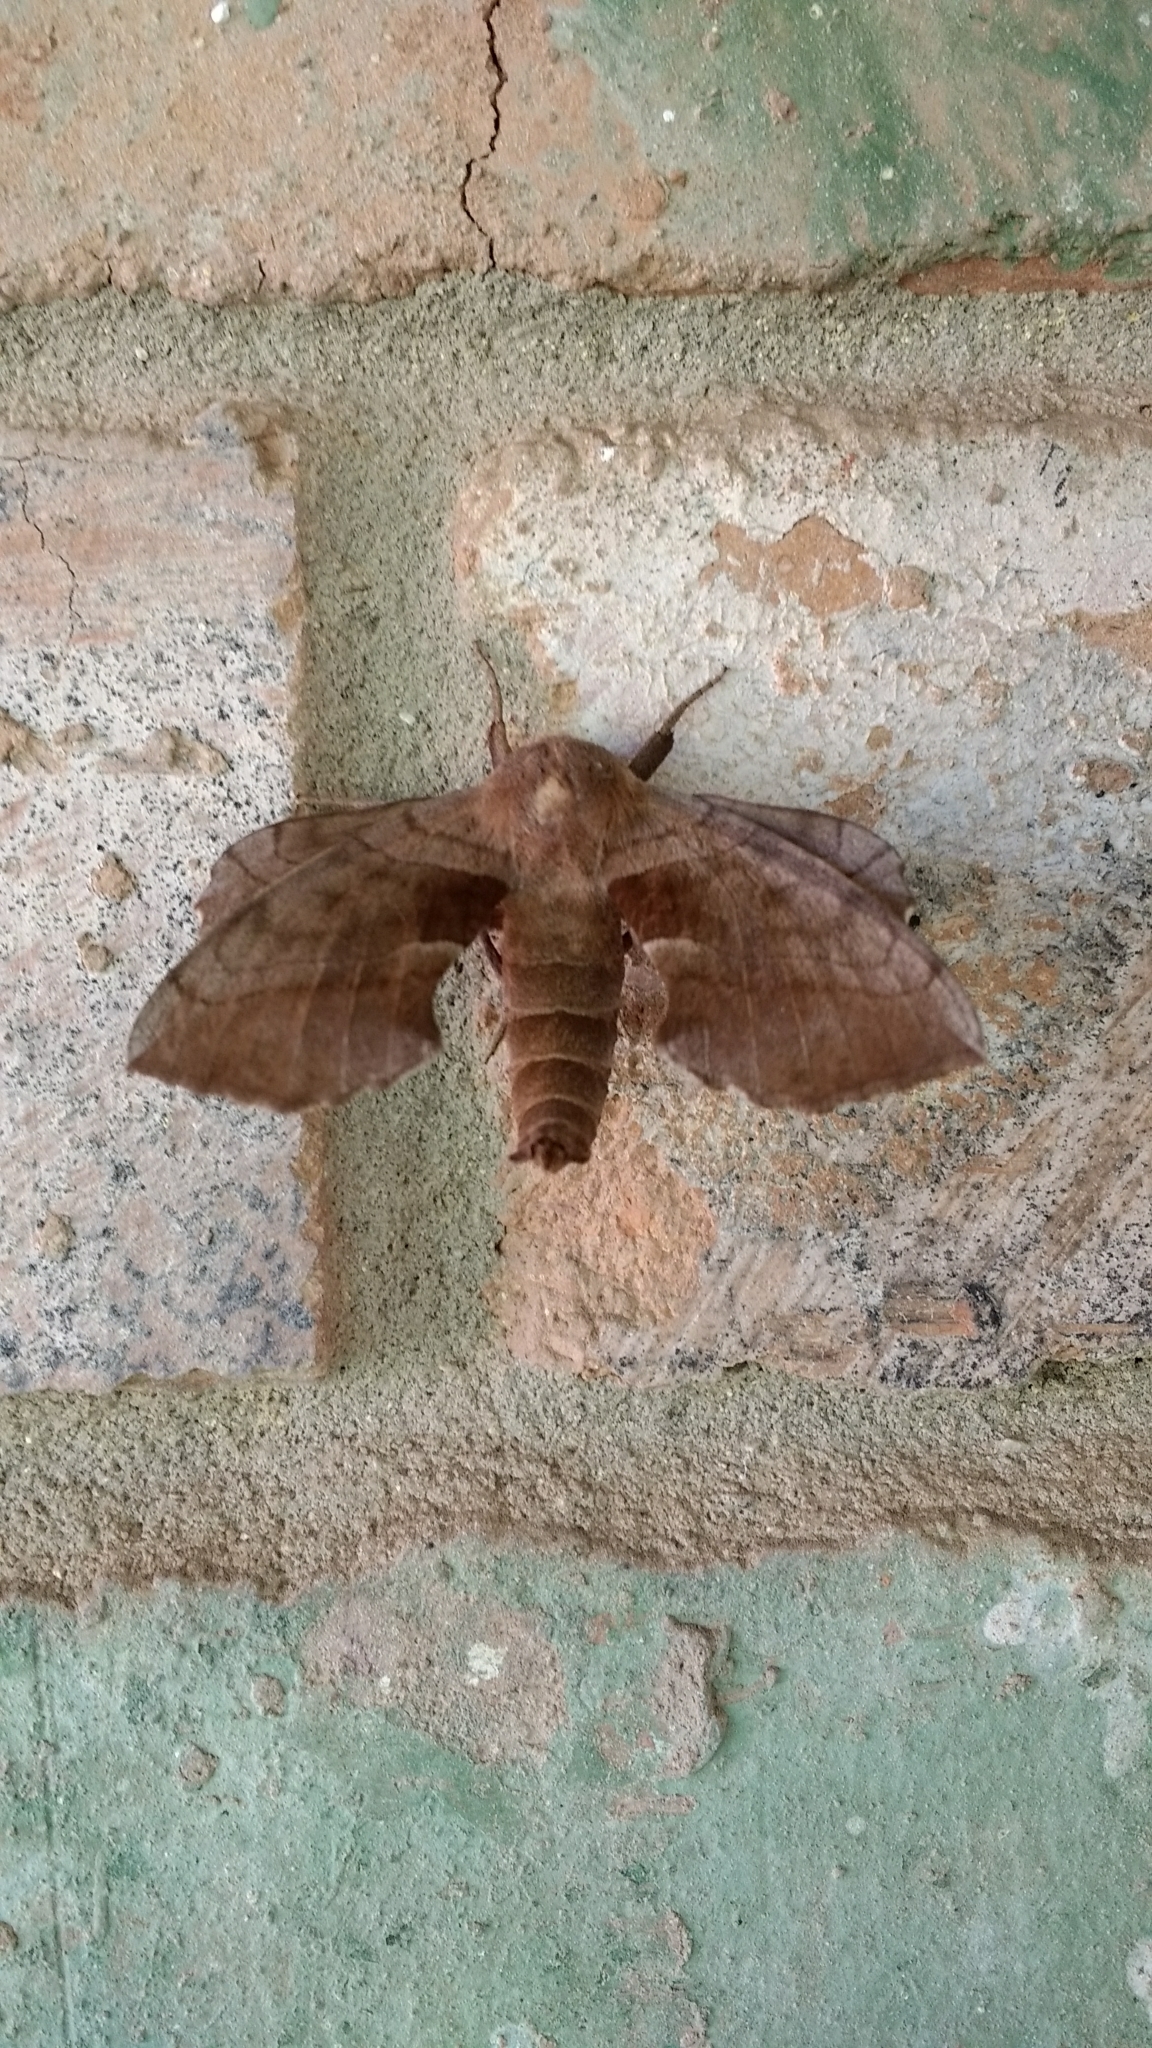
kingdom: Animalia
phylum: Arthropoda
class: Insecta
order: Lepidoptera
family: Sphingidae
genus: Amorpha
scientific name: Amorpha juglandis
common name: Walnut sphinx
